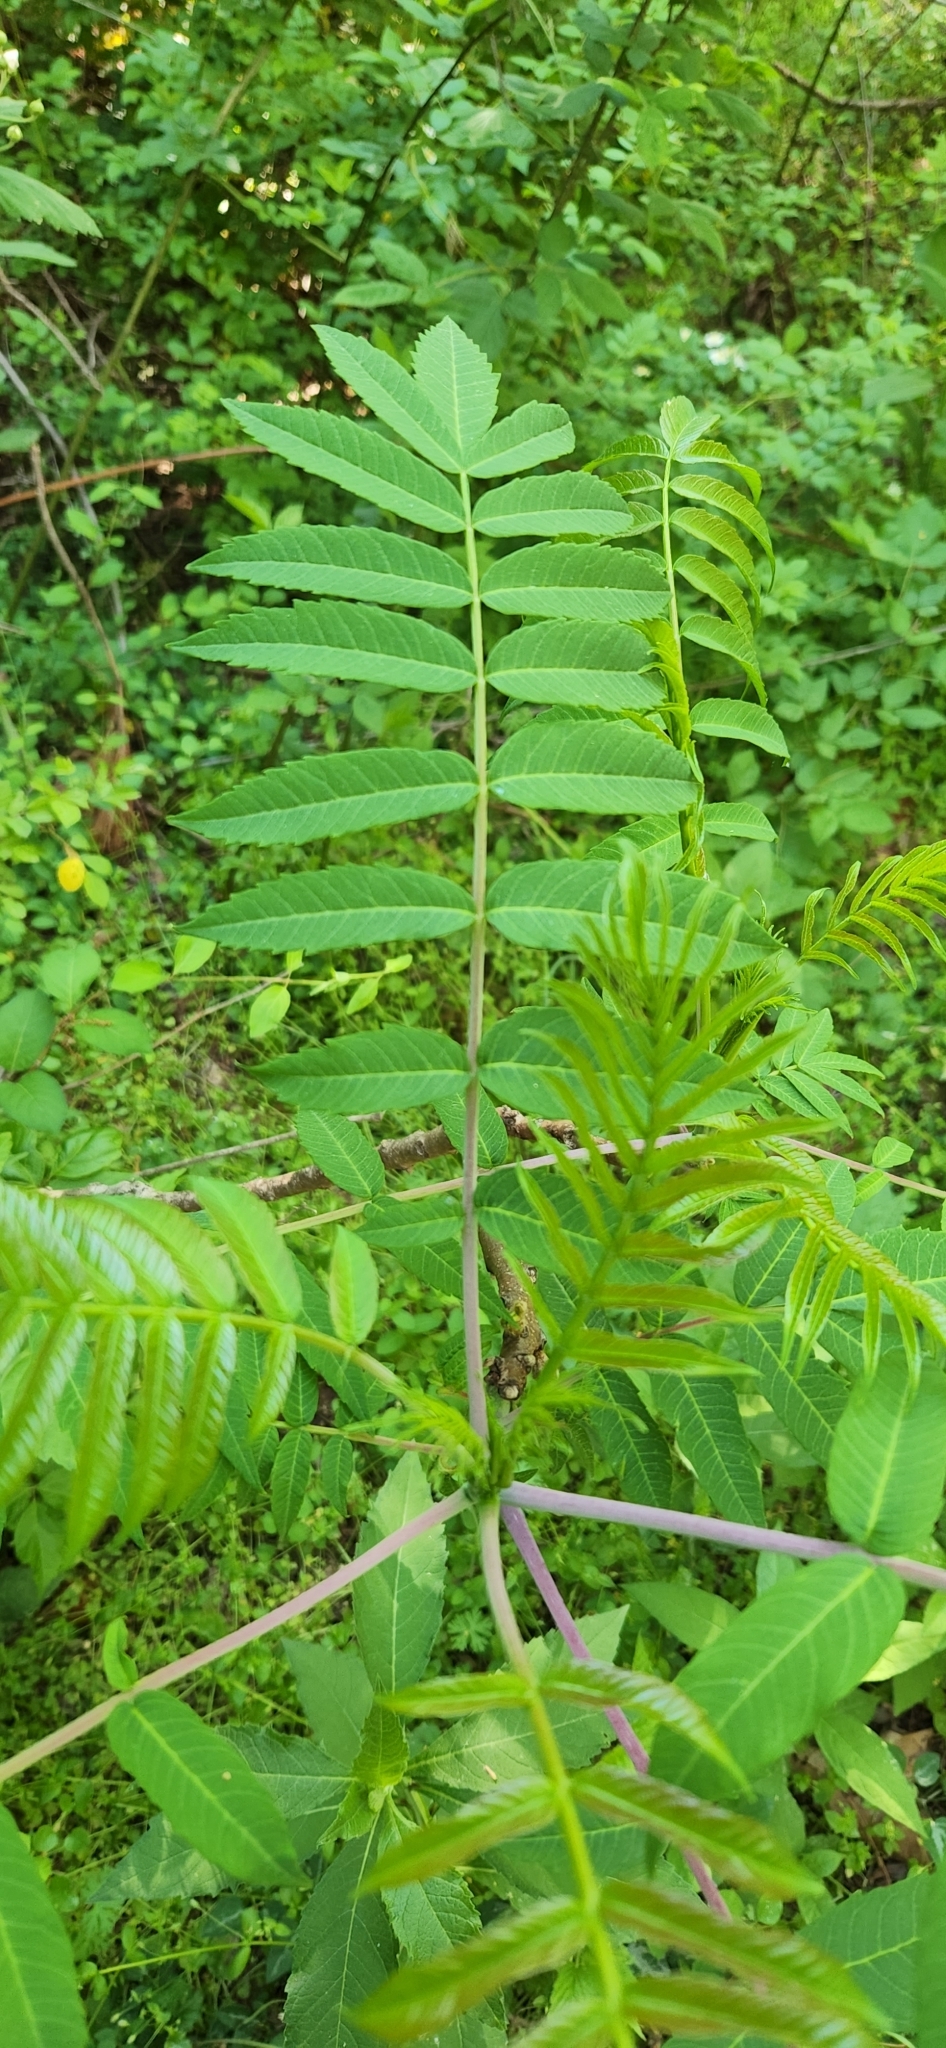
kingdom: Plantae
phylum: Tracheophyta
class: Magnoliopsida
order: Sapindales
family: Anacardiaceae
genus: Rhus
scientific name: Rhus glabra
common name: Scarlet sumac
